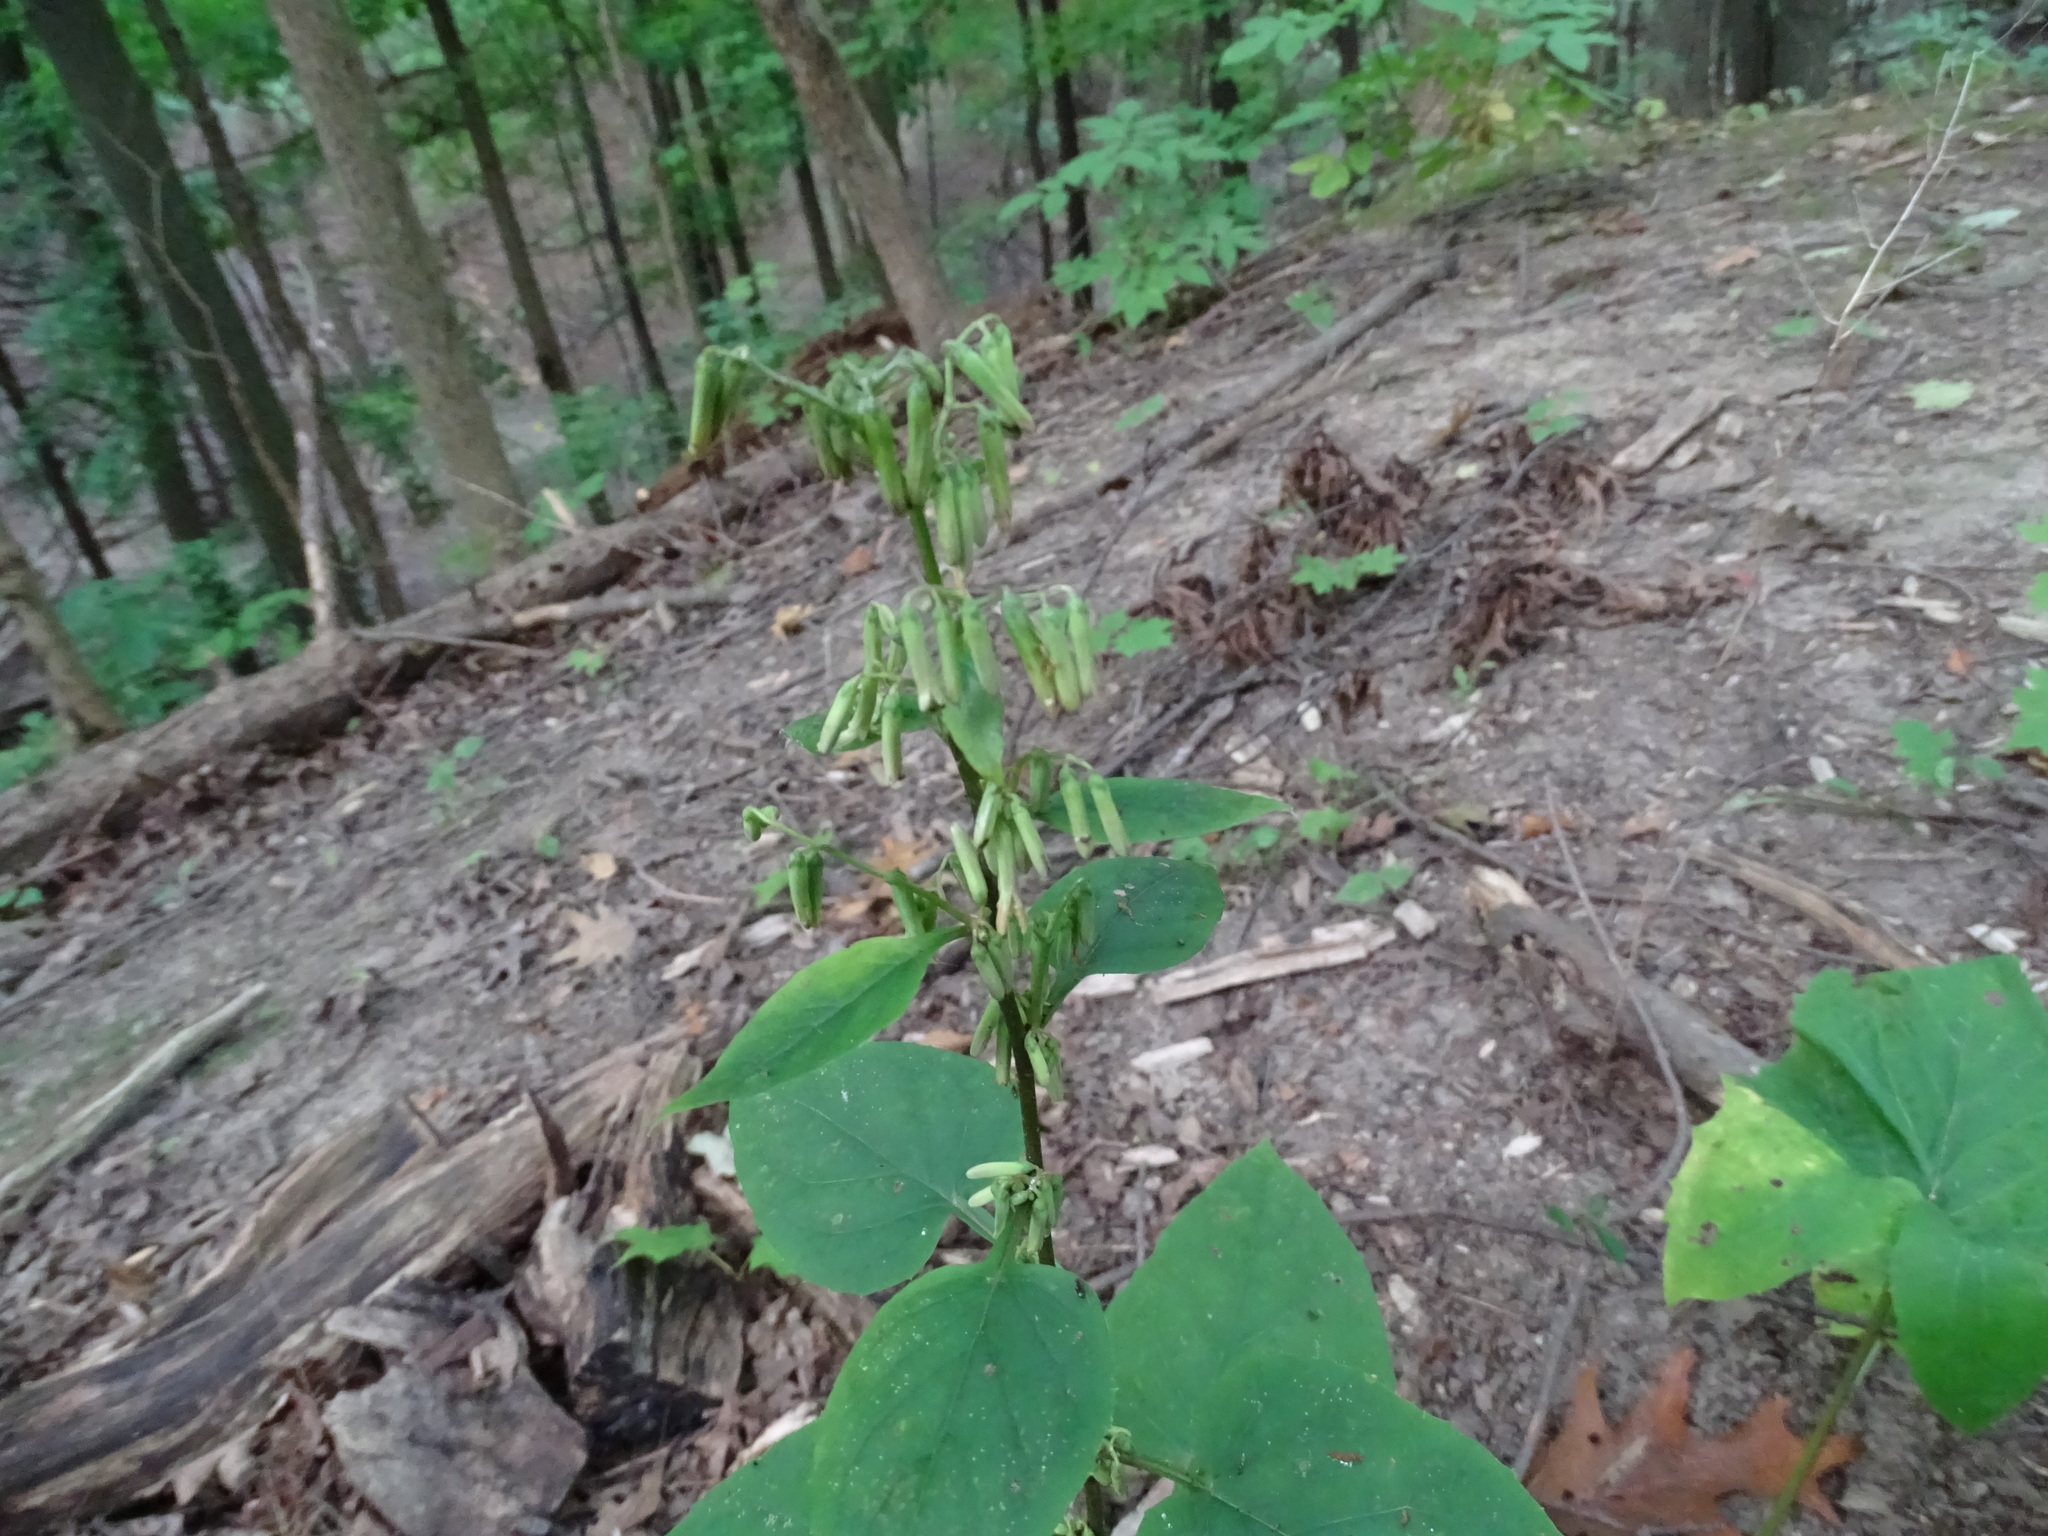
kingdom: Plantae
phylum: Tracheophyta
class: Magnoliopsida
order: Asterales
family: Asteraceae
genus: Nabalus
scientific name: Nabalus altissima
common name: Tall rattlesnakeroot
